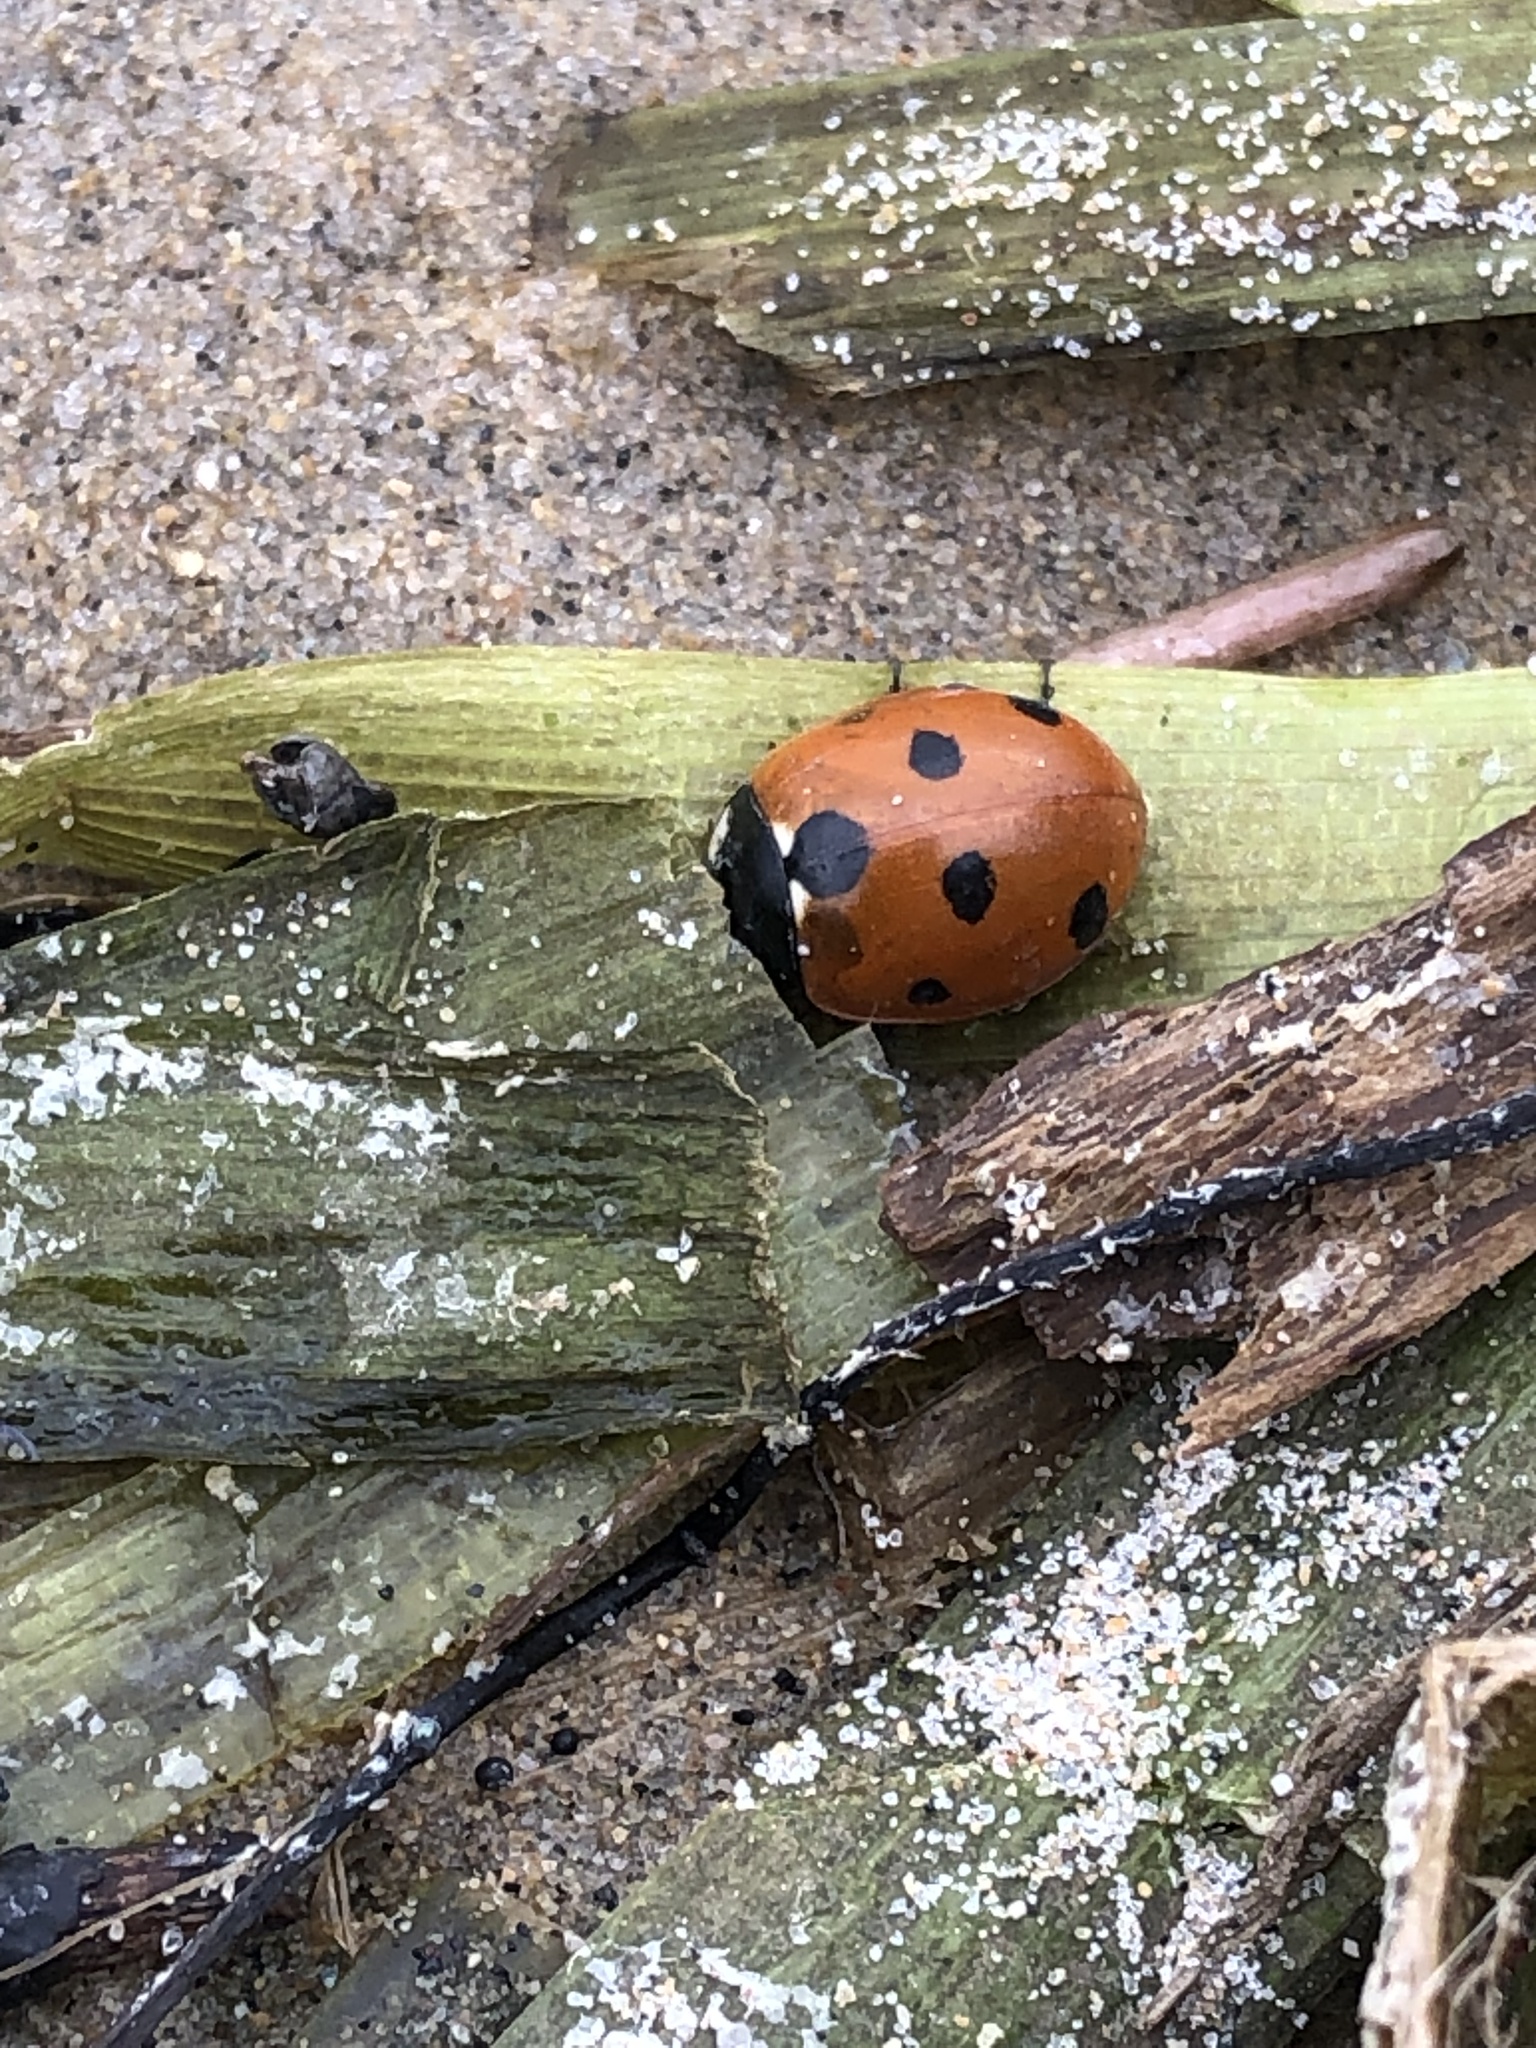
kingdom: Animalia
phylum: Arthropoda
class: Insecta
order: Coleoptera
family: Coccinellidae
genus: Coccinella
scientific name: Coccinella septempunctata
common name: Sevenspotted lady beetle
